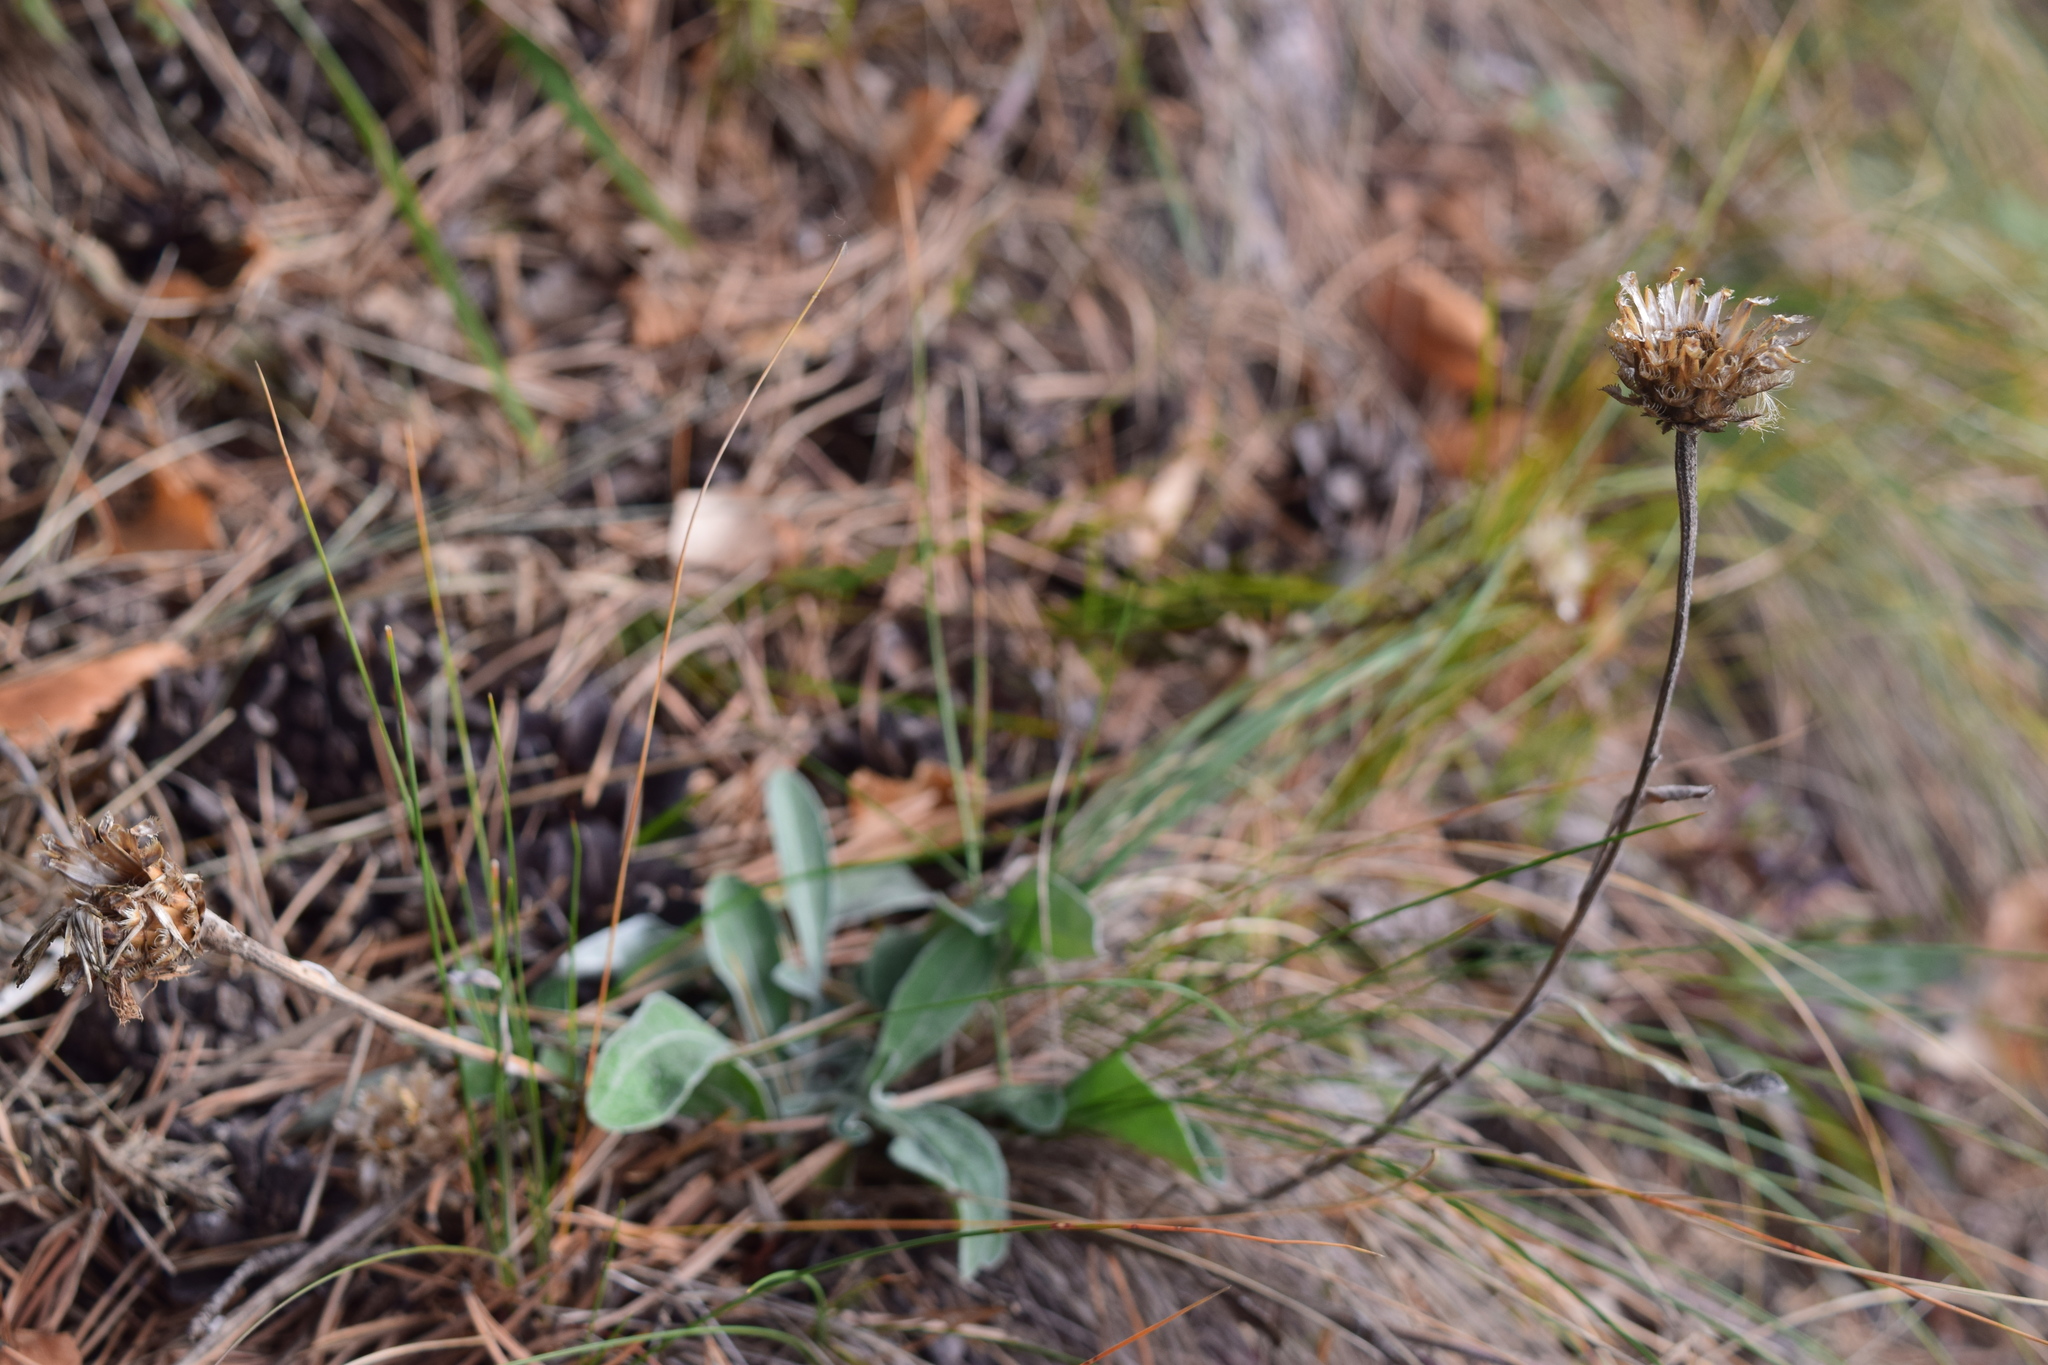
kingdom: Plantae
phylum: Tracheophyta
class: Magnoliopsida
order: Asterales
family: Asteraceae
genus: Psephellus
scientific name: Psephellus sibiricus
